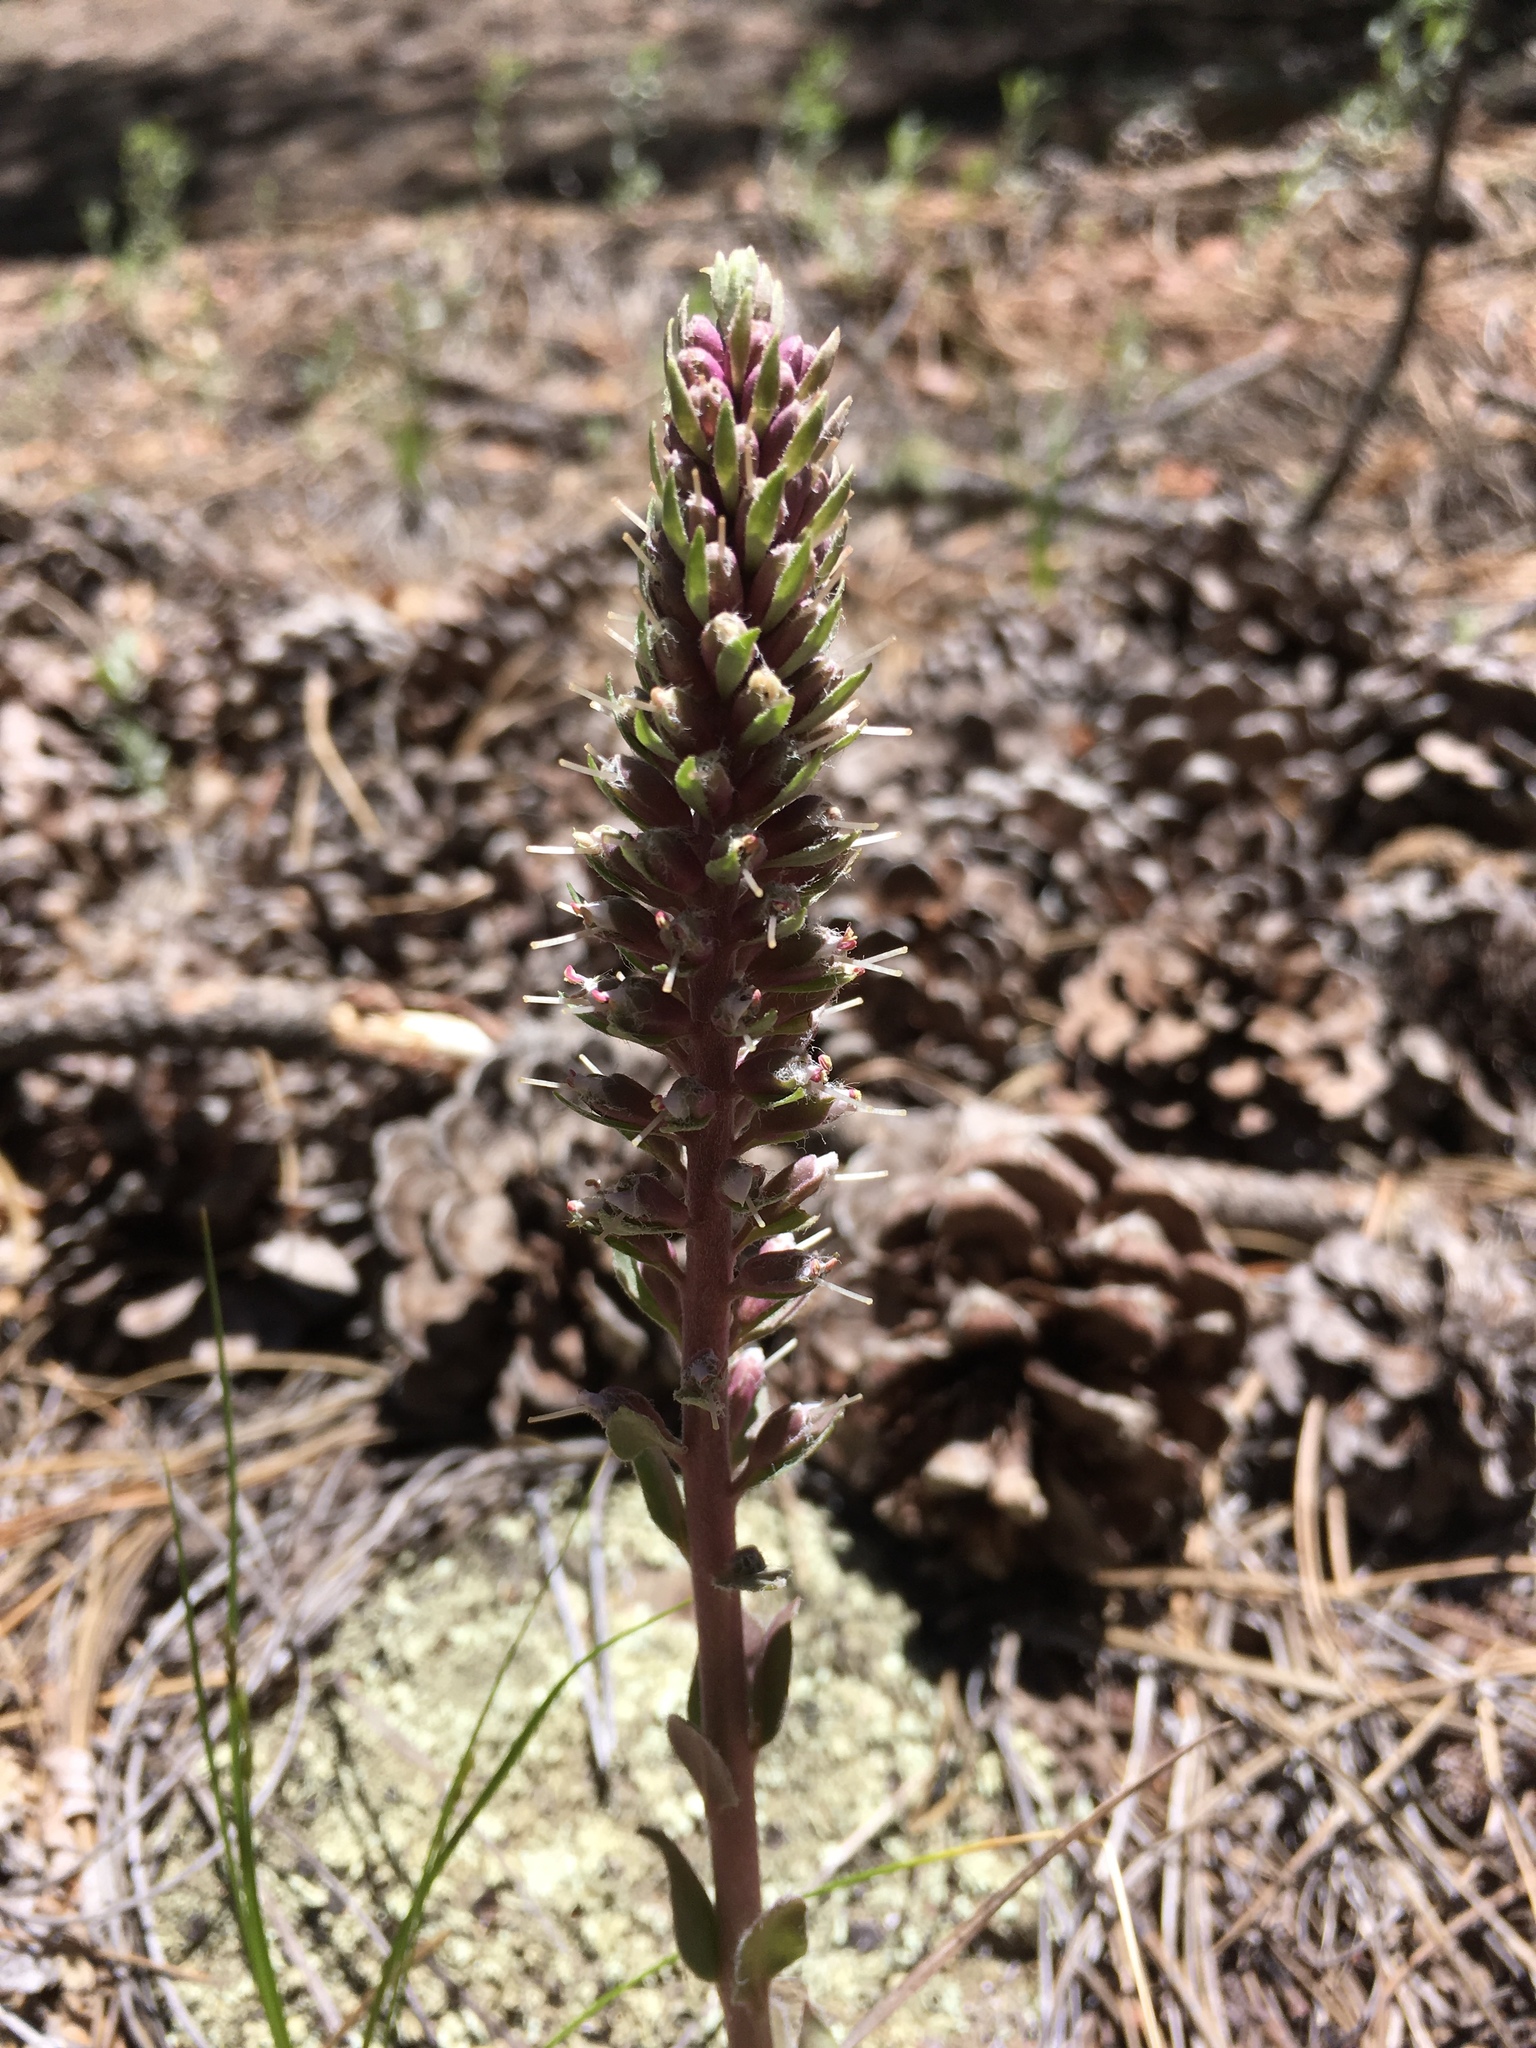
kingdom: Plantae
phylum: Tracheophyta
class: Magnoliopsida
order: Lamiales
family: Plantaginaceae
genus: Veronica
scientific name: Veronica plantaginea
